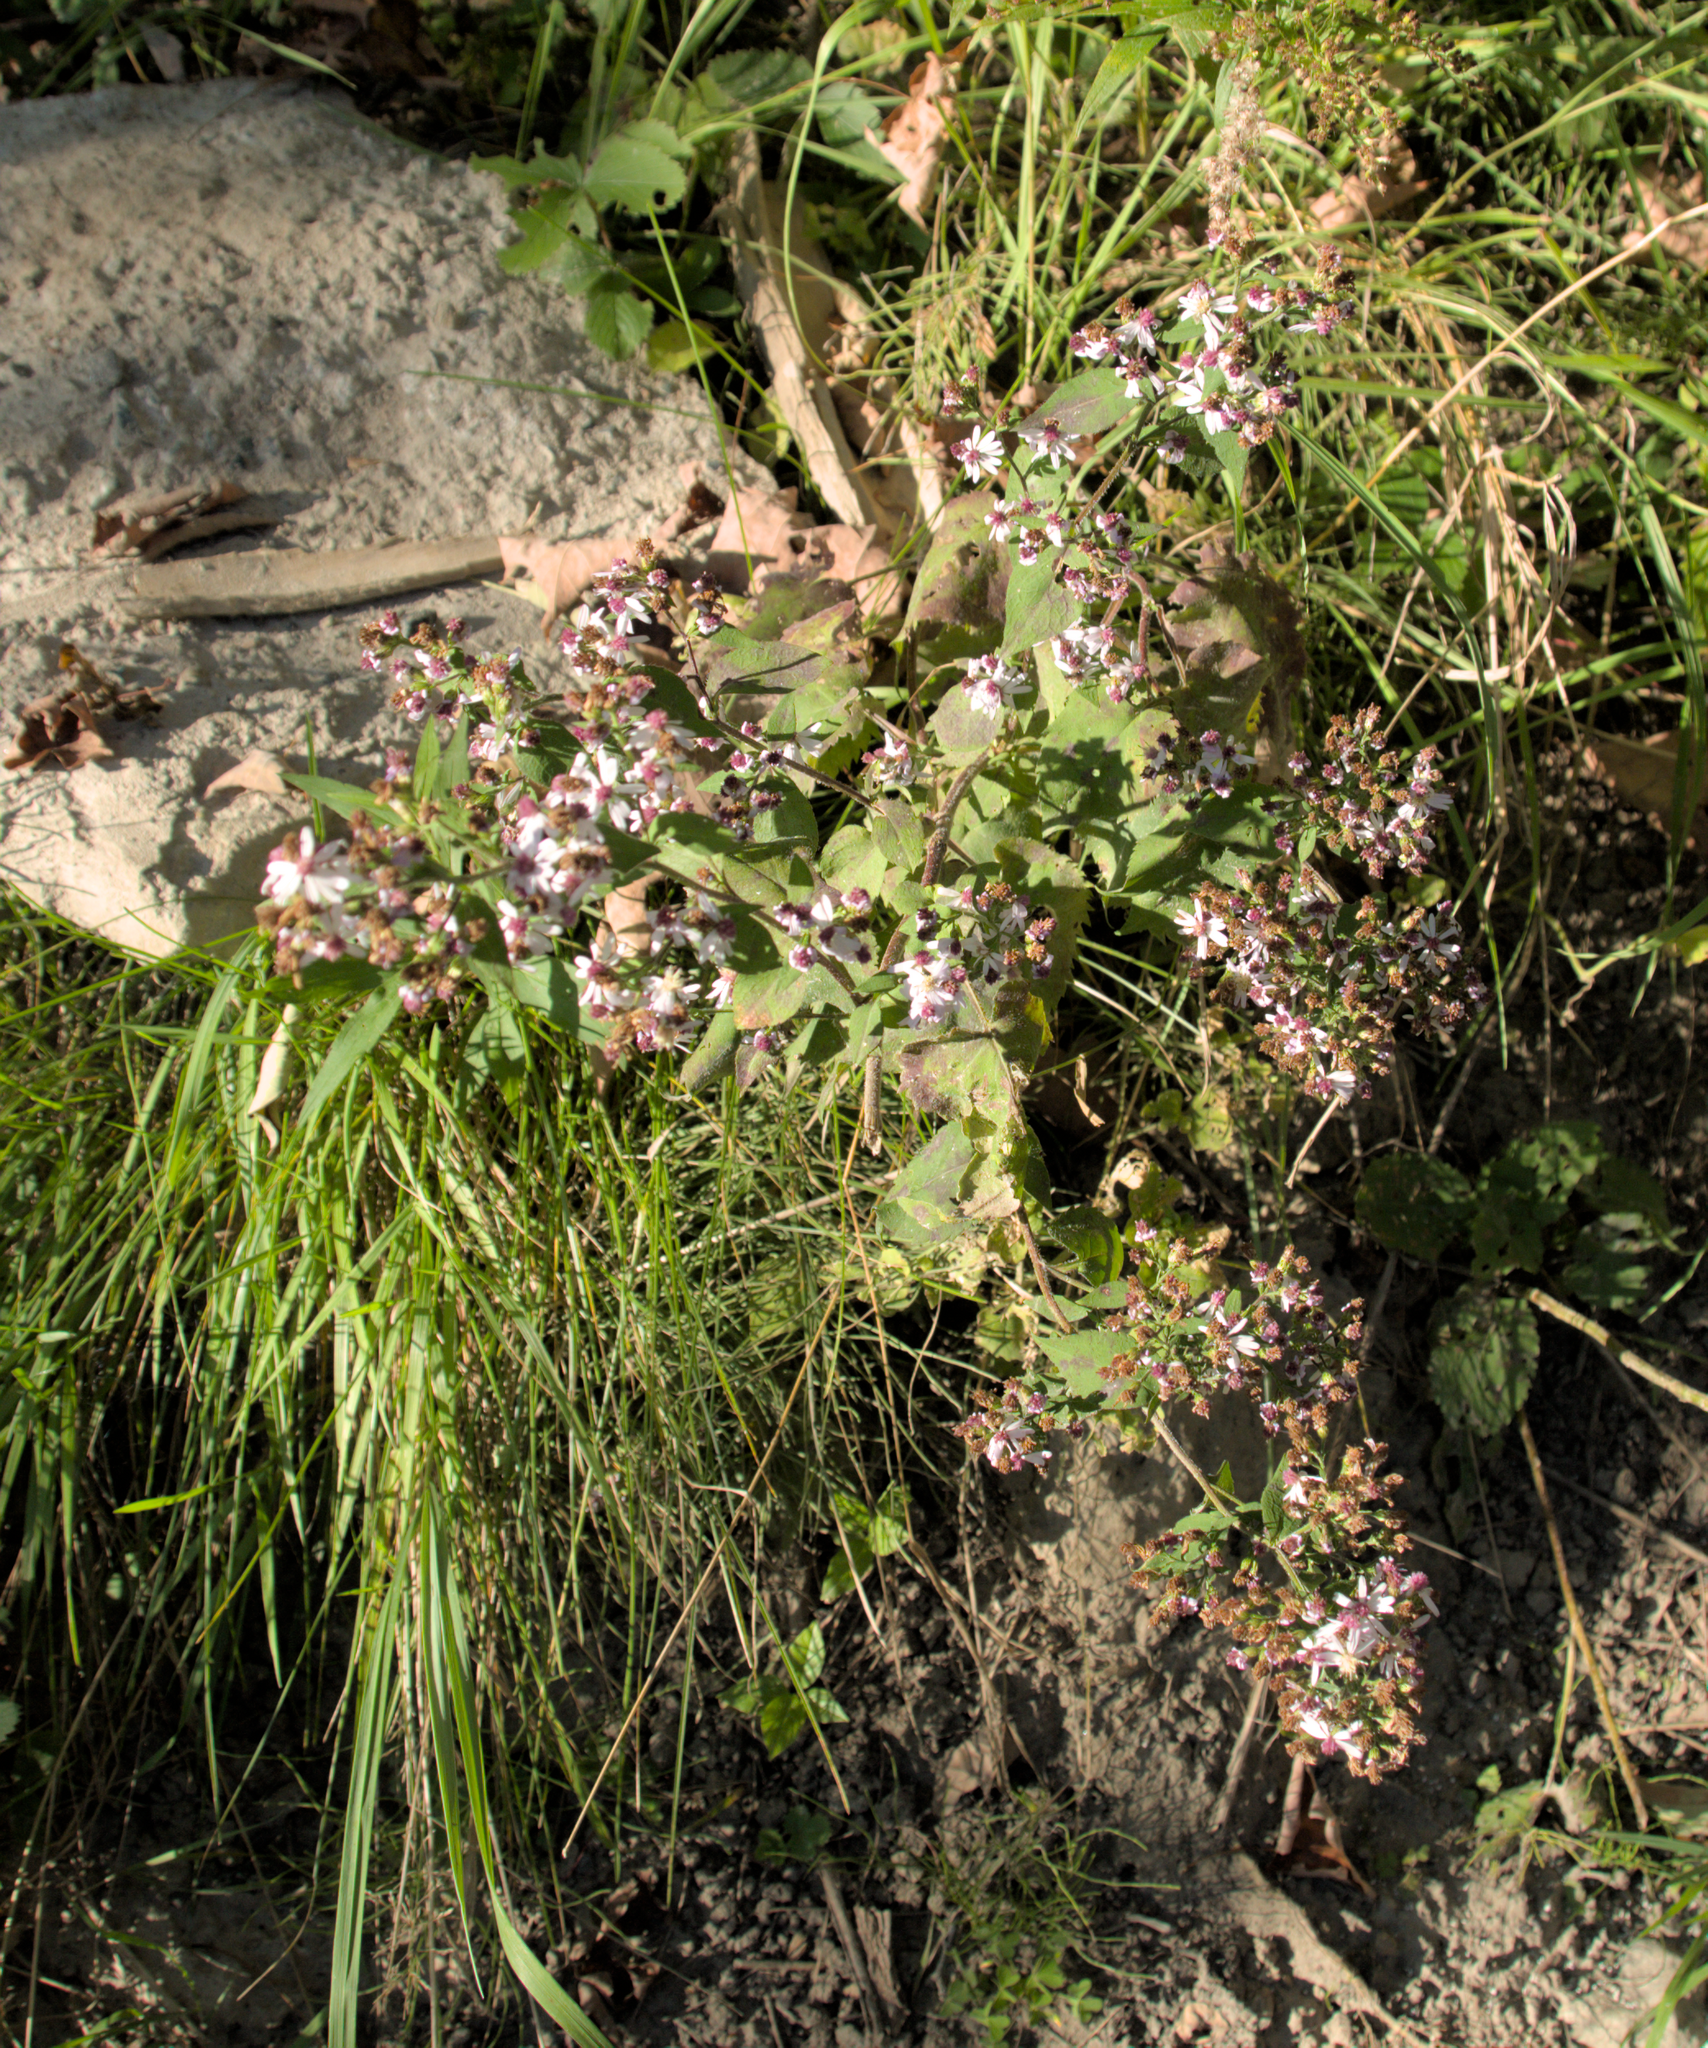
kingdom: Plantae
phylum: Tracheophyta
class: Magnoliopsida
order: Asterales
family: Asteraceae
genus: Symphyotrichum
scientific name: Symphyotrichum cordifolium
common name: Beeweed
